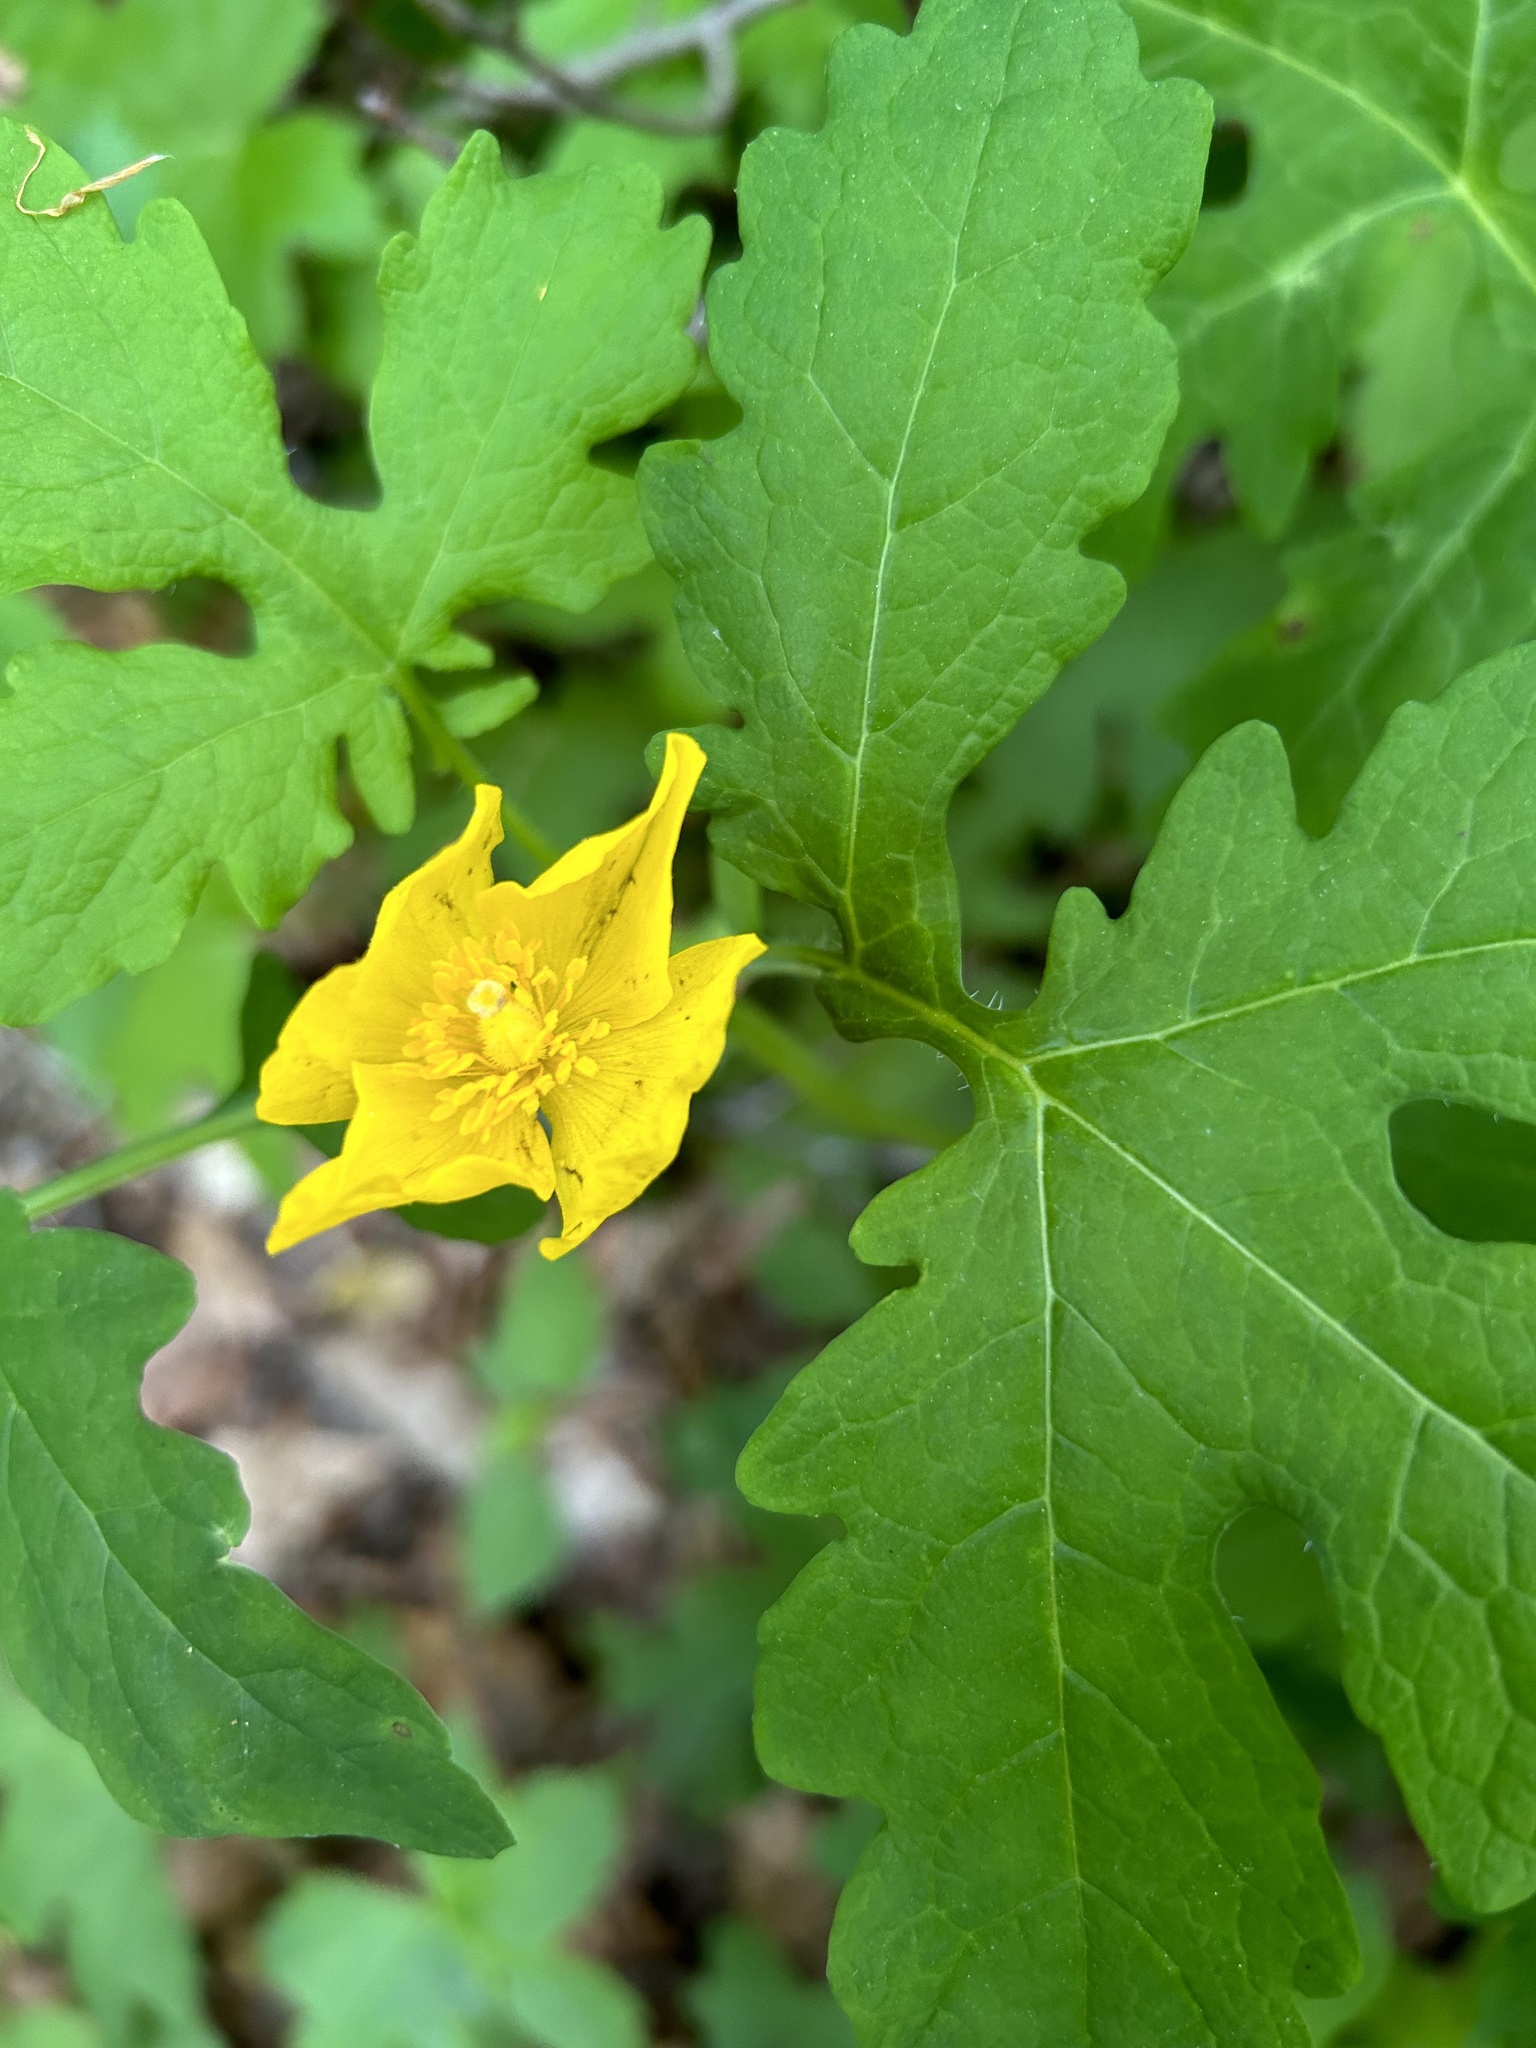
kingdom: Plantae
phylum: Tracheophyta
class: Magnoliopsida
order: Ranunculales
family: Papaveraceae
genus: Stylophorum
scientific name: Stylophorum diphyllum
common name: Celandine poppy
